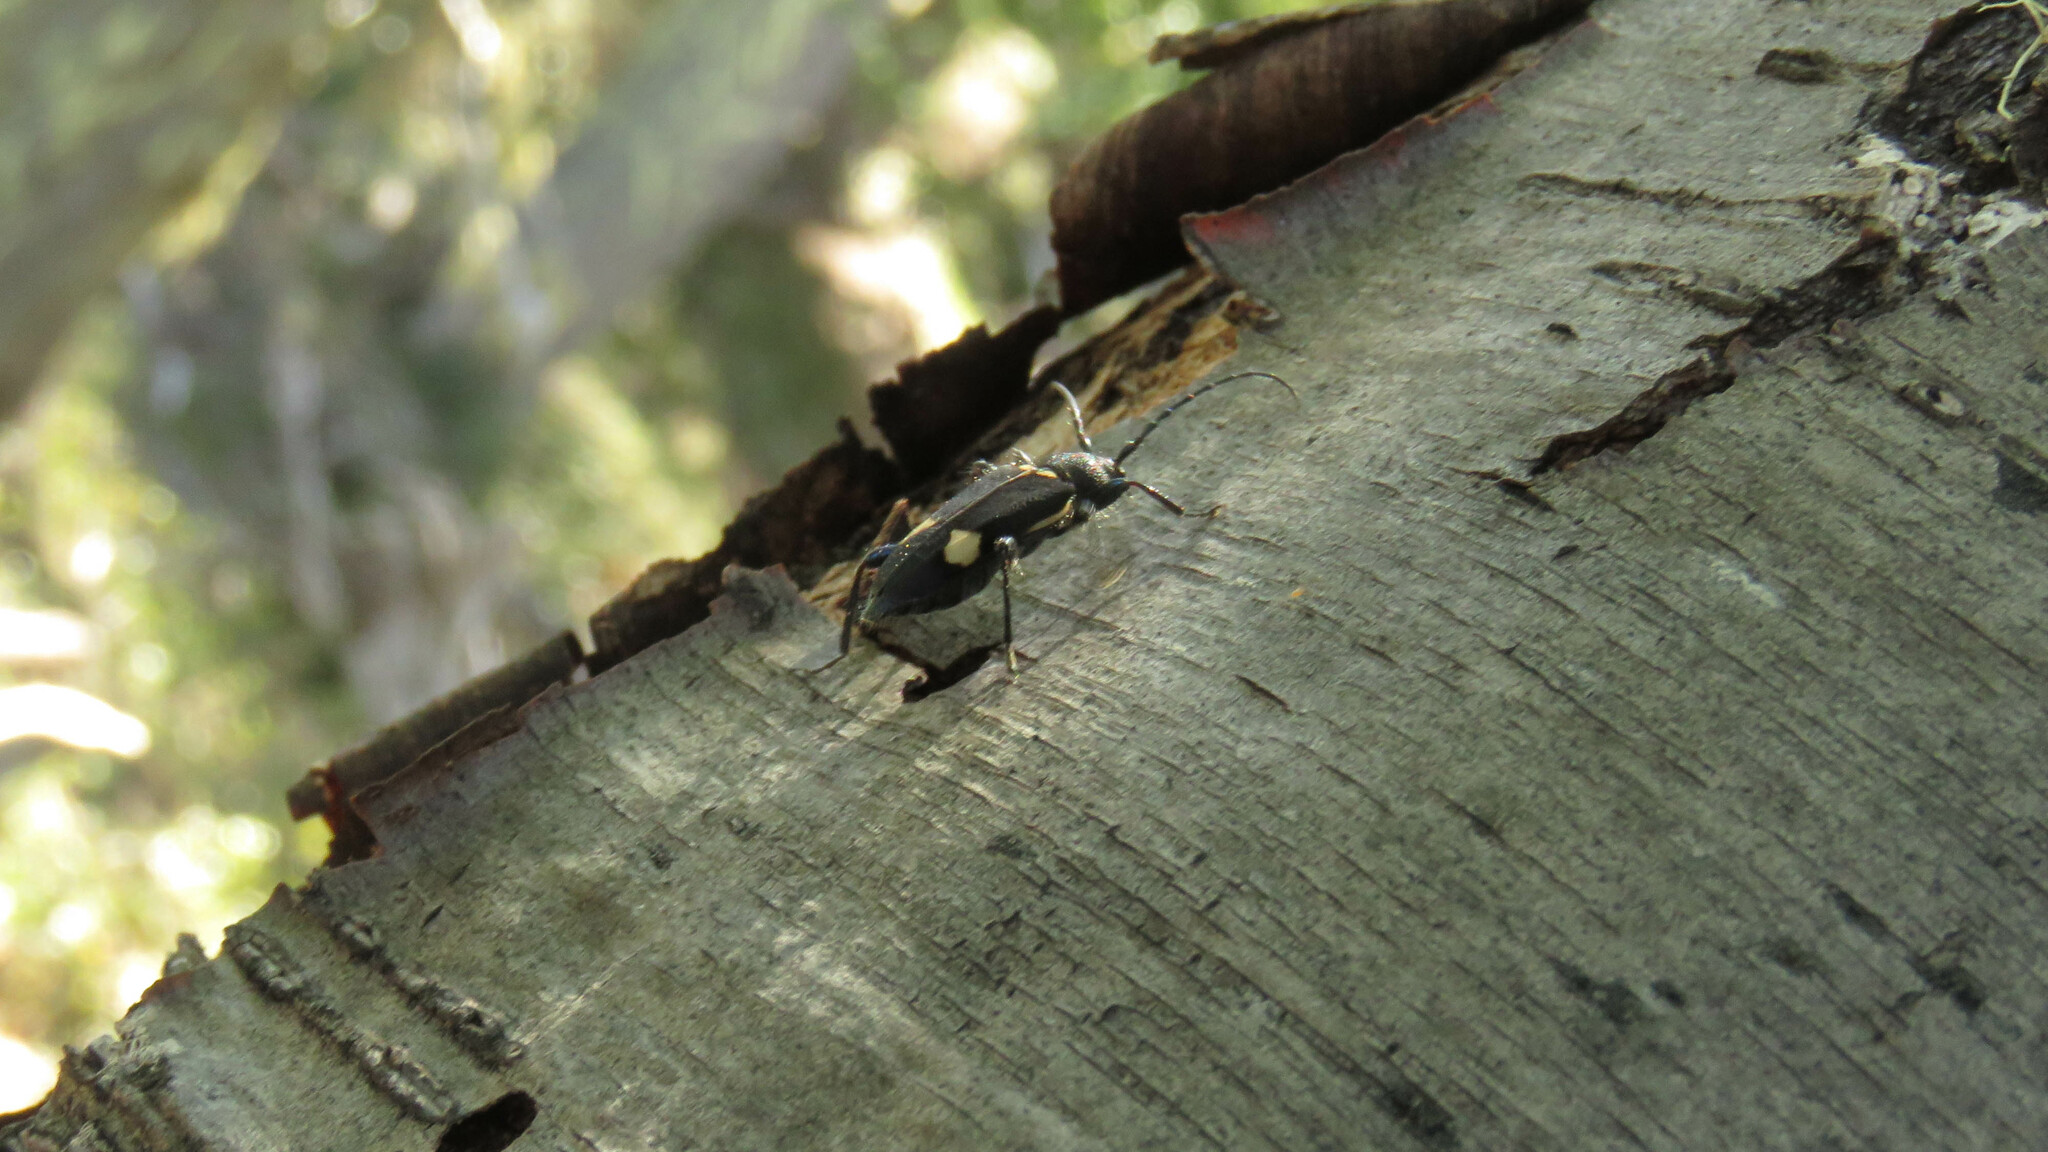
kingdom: Animalia
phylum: Arthropoda
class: Insecta
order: Coleoptera
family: Cerambycidae
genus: Calydon
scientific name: Calydon globithorax
